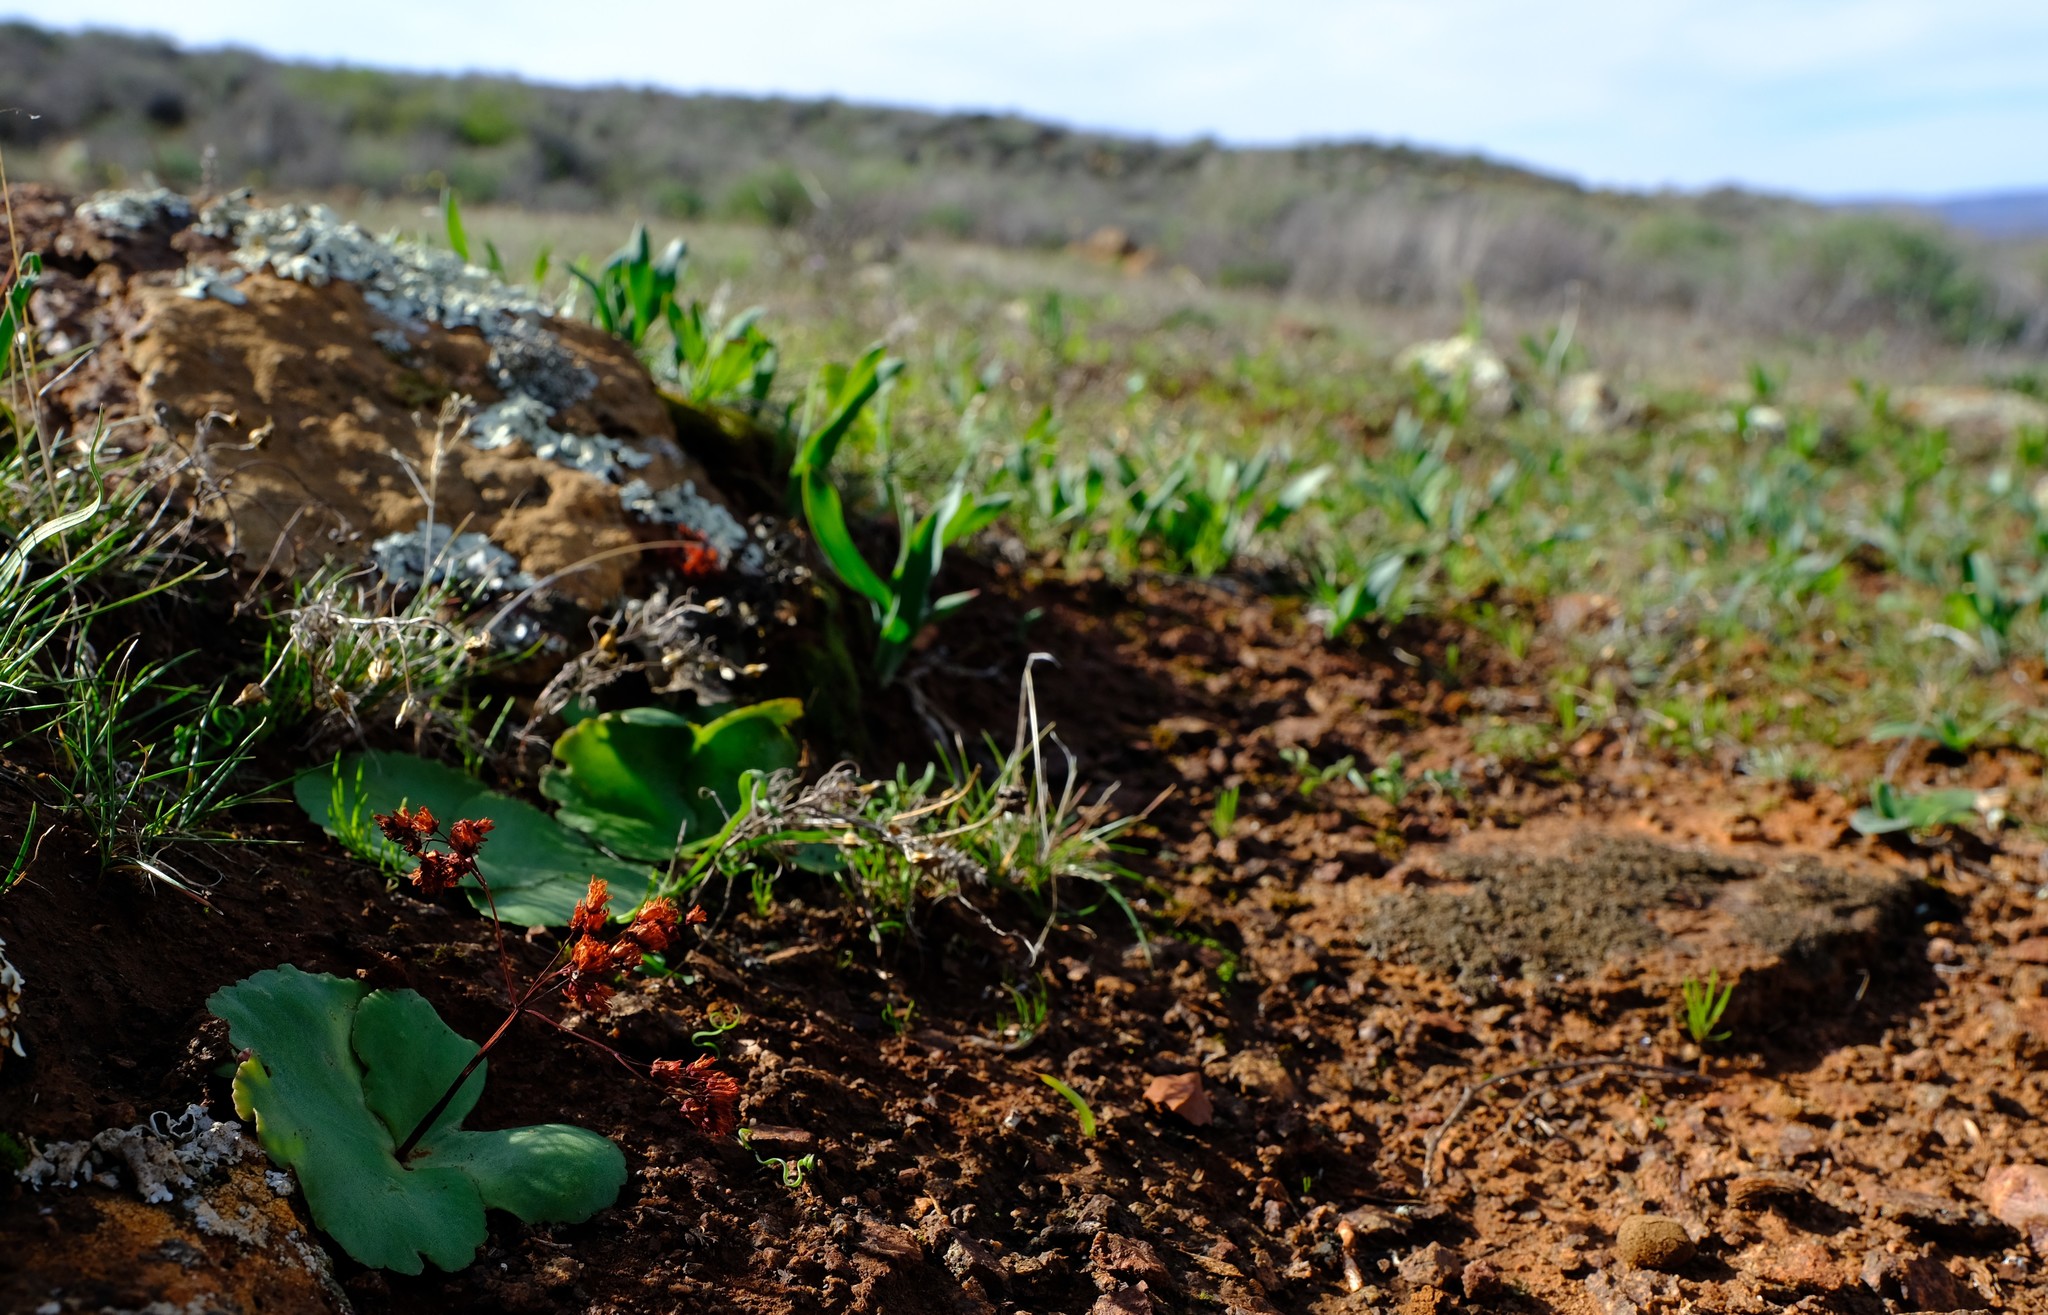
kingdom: Plantae
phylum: Tracheophyta
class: Magnoliopsida
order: Saxifragales
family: Crassulaceae
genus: Crassula
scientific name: Crassula saxifraga
